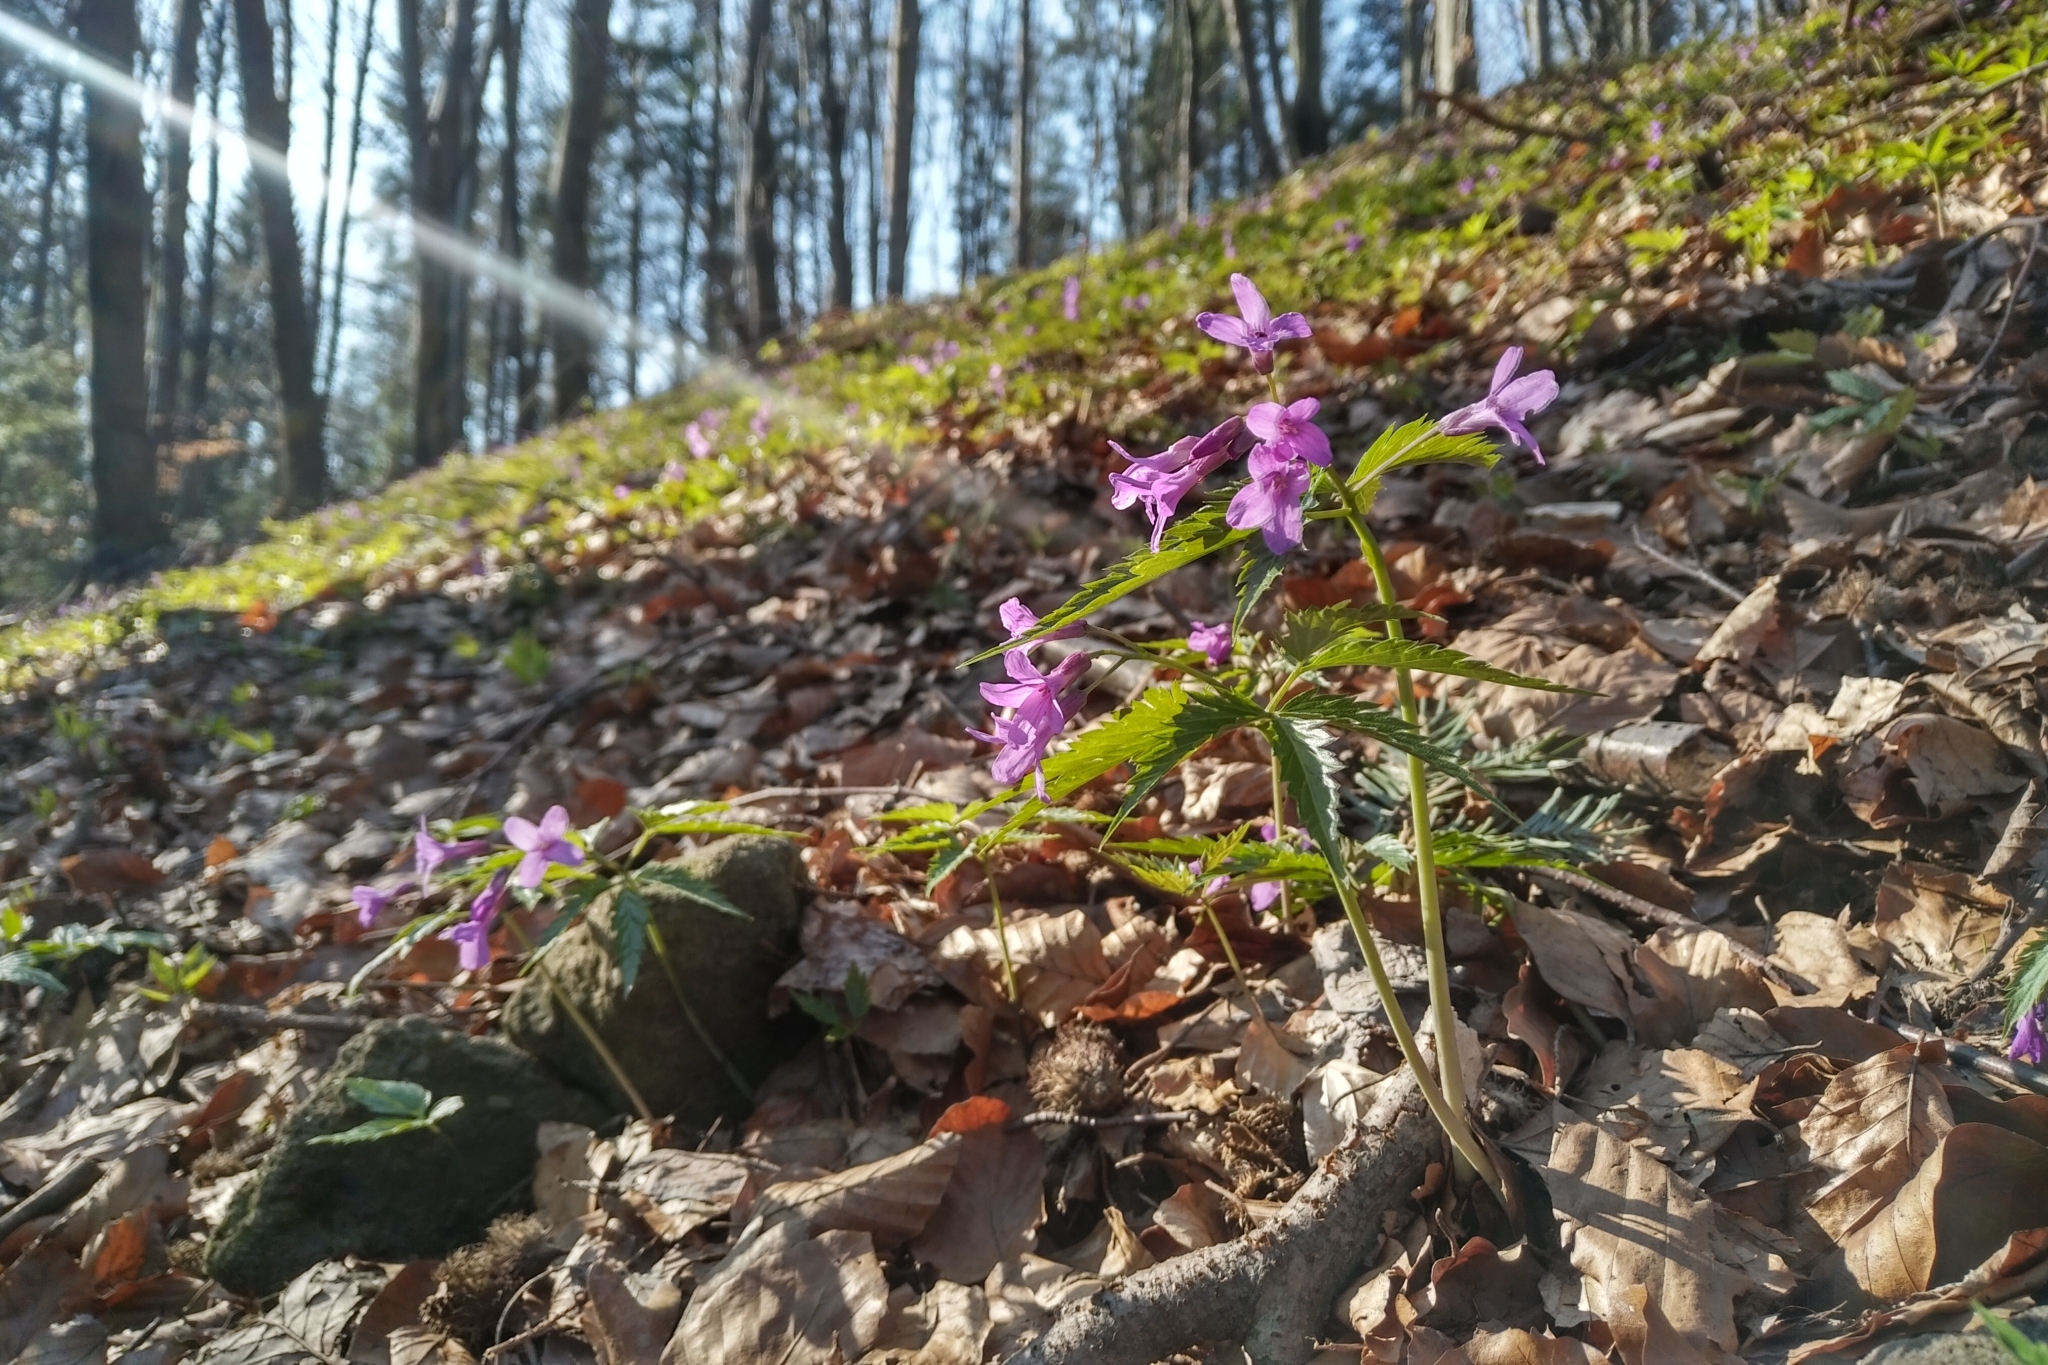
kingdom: Plantae
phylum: Tracheophyta
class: Magnoliopsida
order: Brassicales
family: Brassicaceae
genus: Cardamine
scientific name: Cardamine glanduligera
